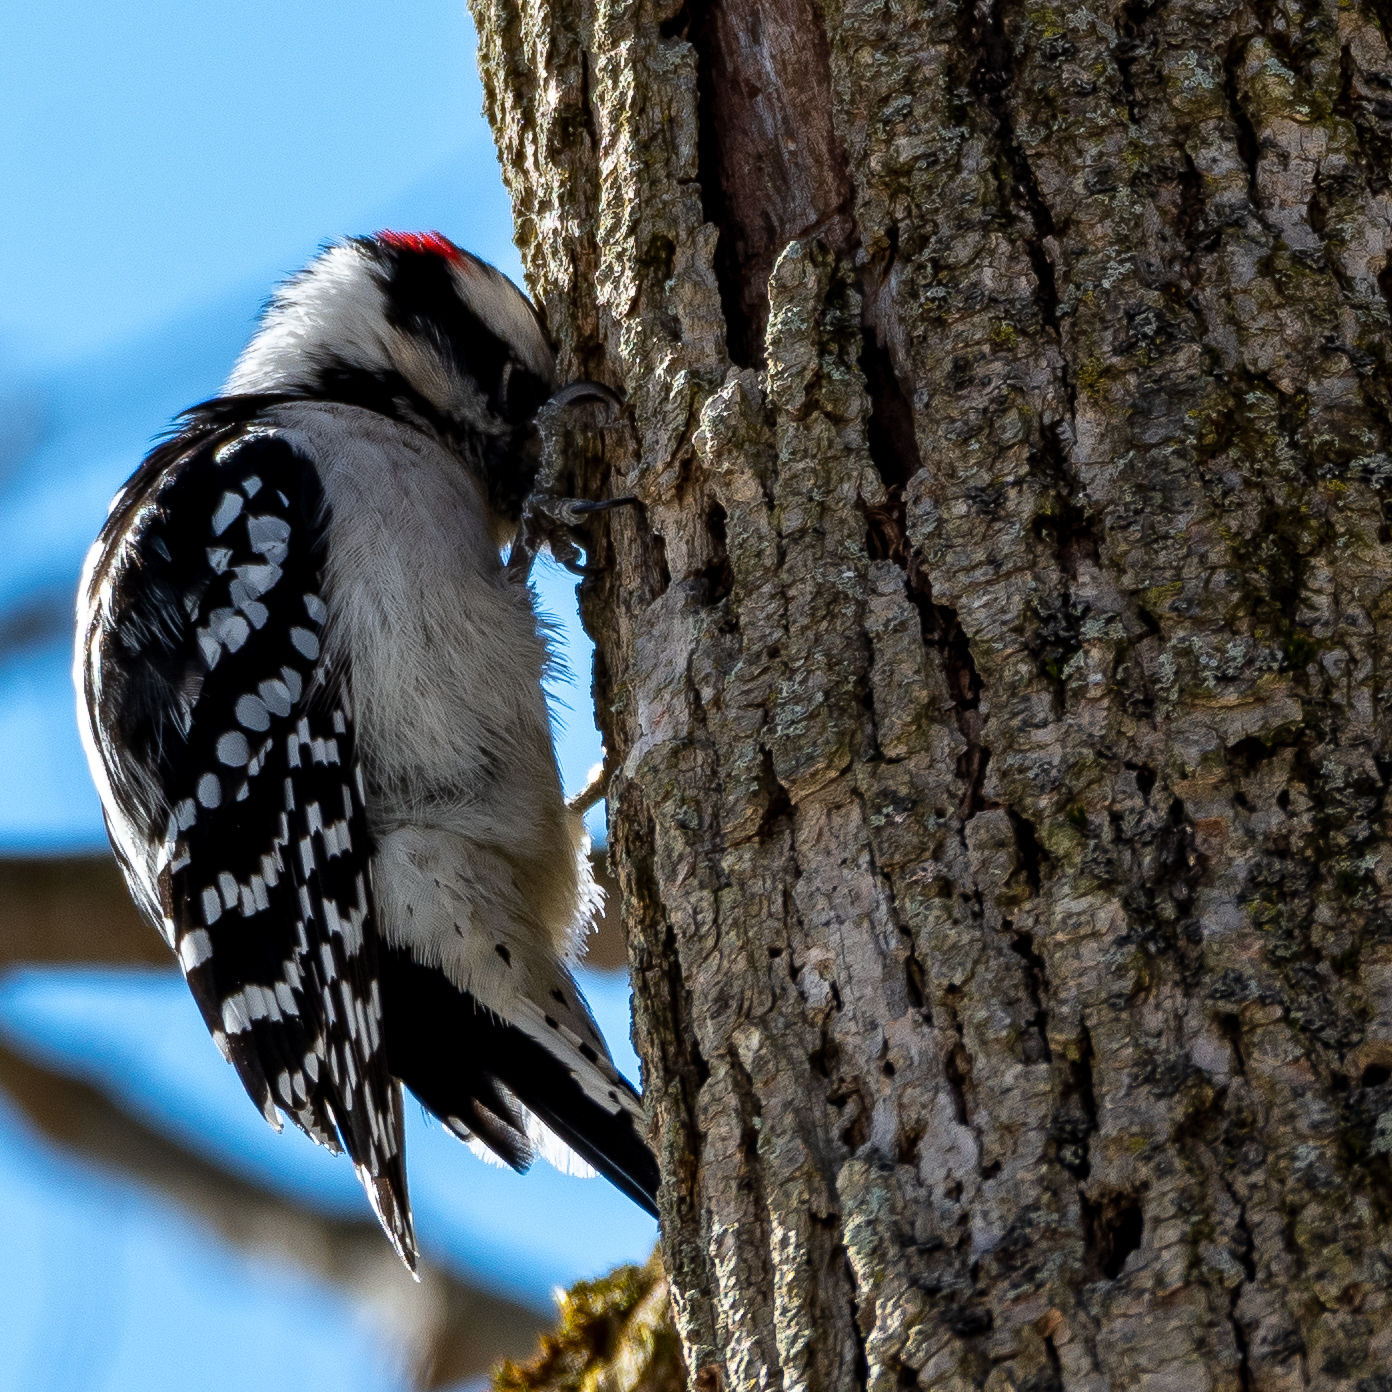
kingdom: Animalia
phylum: Chordata
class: Aves
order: Piciformes
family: Picidae
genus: Dryobates
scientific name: Dryobates pubescens
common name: Downy woodpecker
